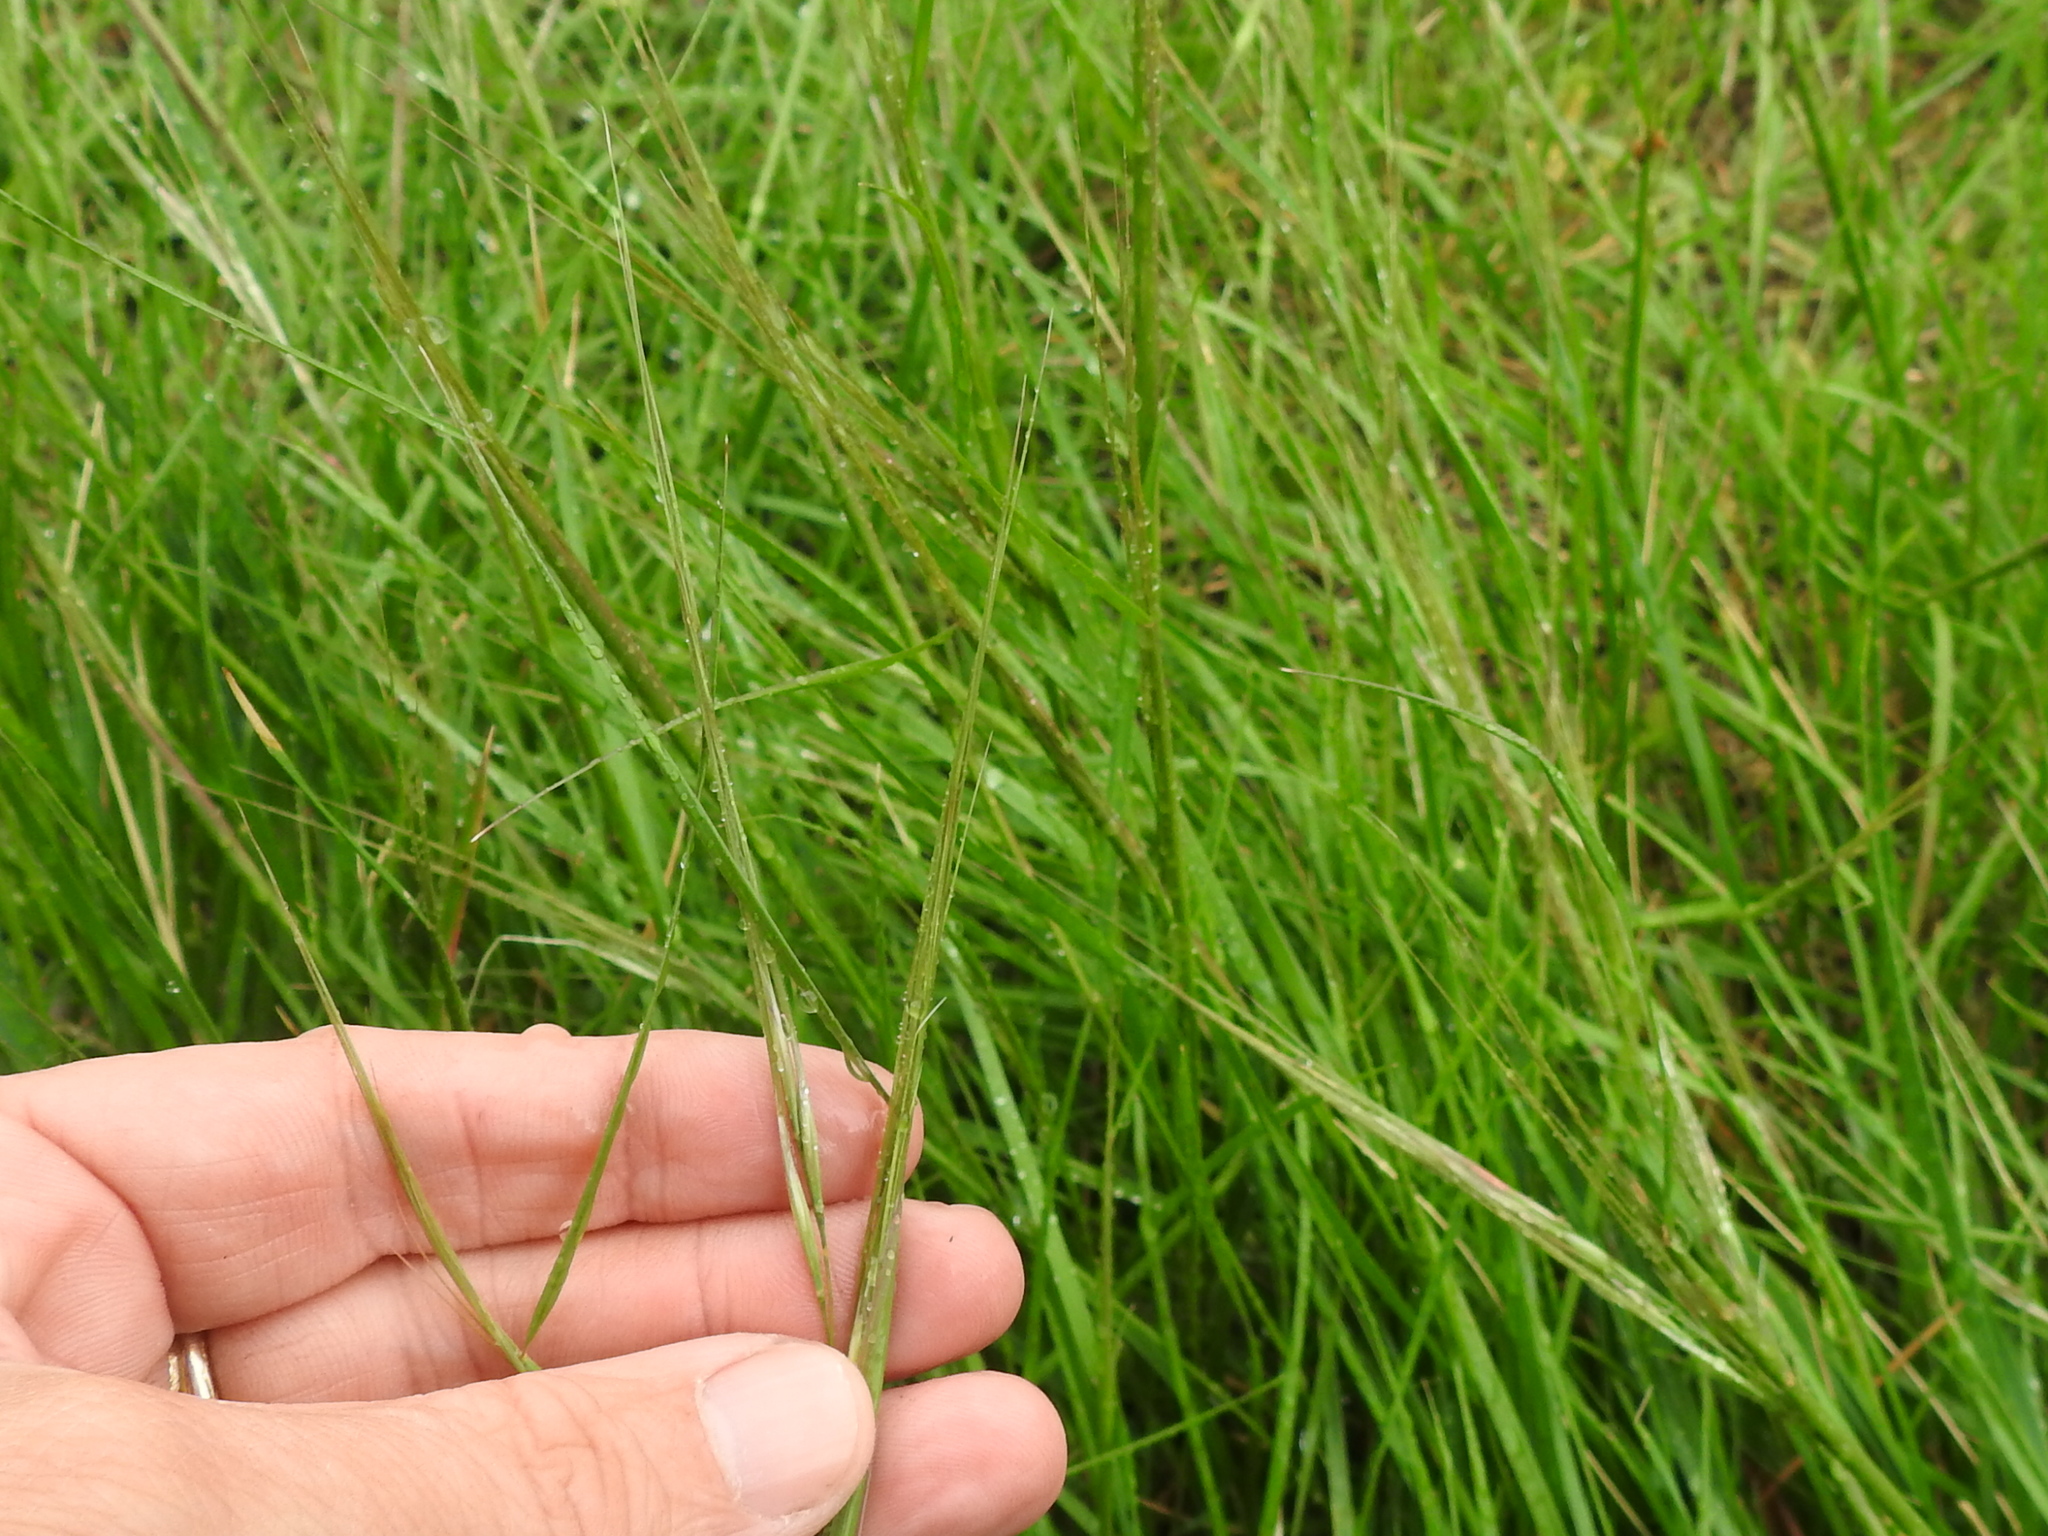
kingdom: Plantae
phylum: Tracheophyta
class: Liliopsida
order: Poales
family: Poaceae
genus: Nassella
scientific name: Nassella leucotricha
